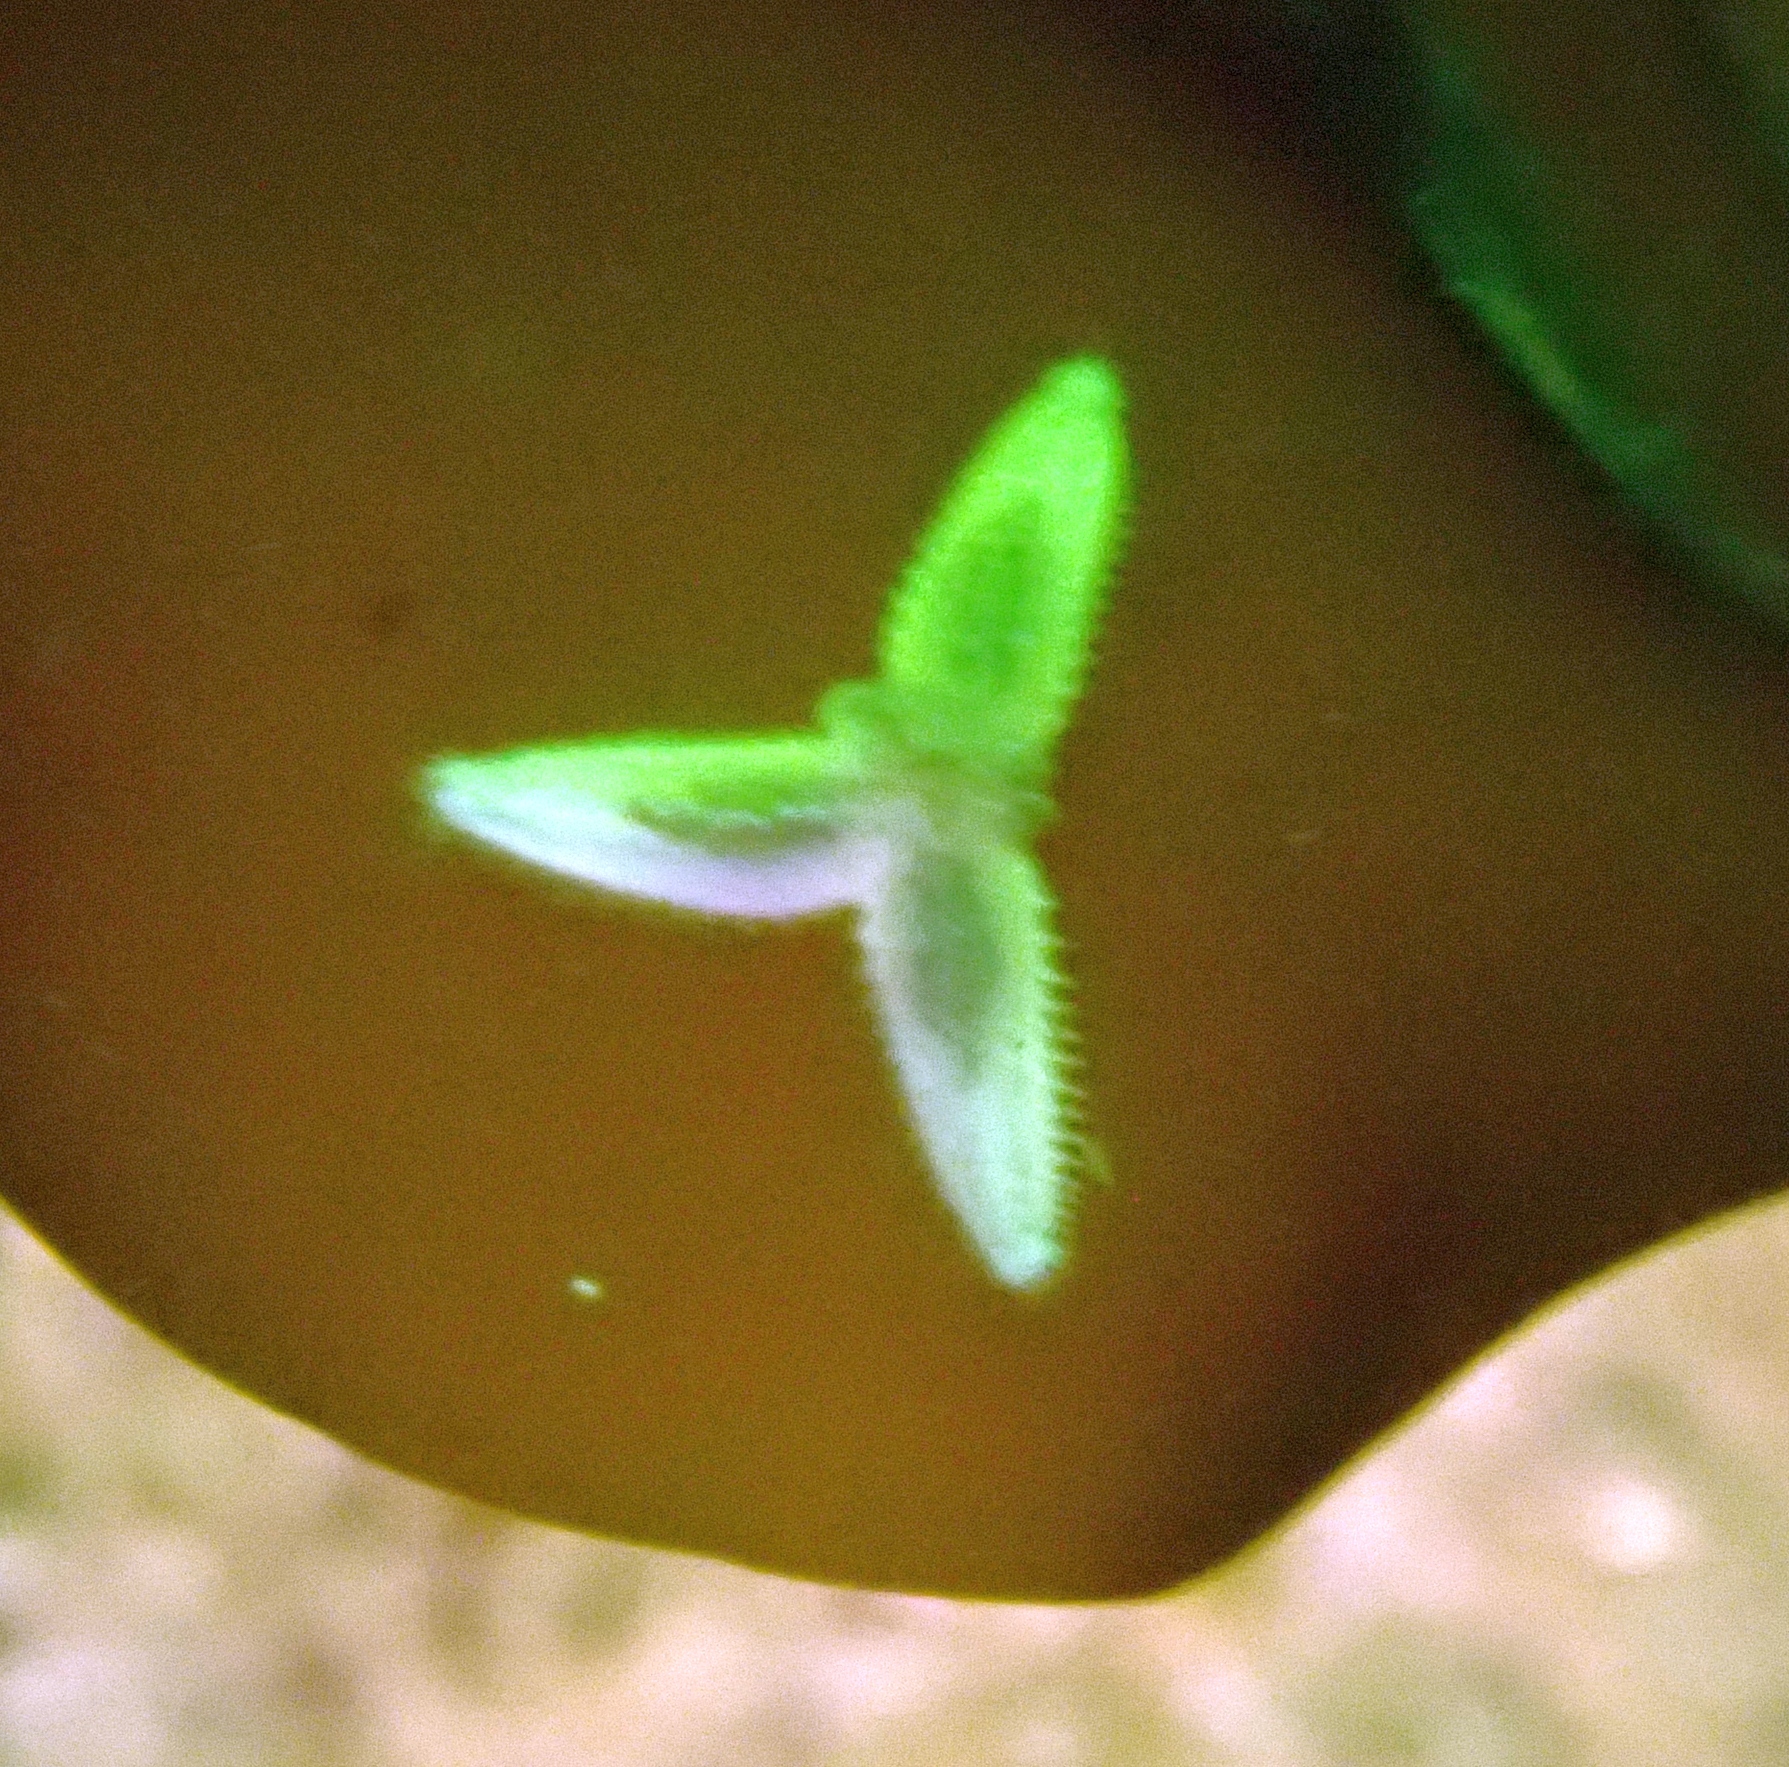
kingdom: Animalia
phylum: Echinodermata
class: Asteroidea
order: Forcipulatida
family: Asteriidae
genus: Asterias
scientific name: Asterias rubens
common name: Common starfish
